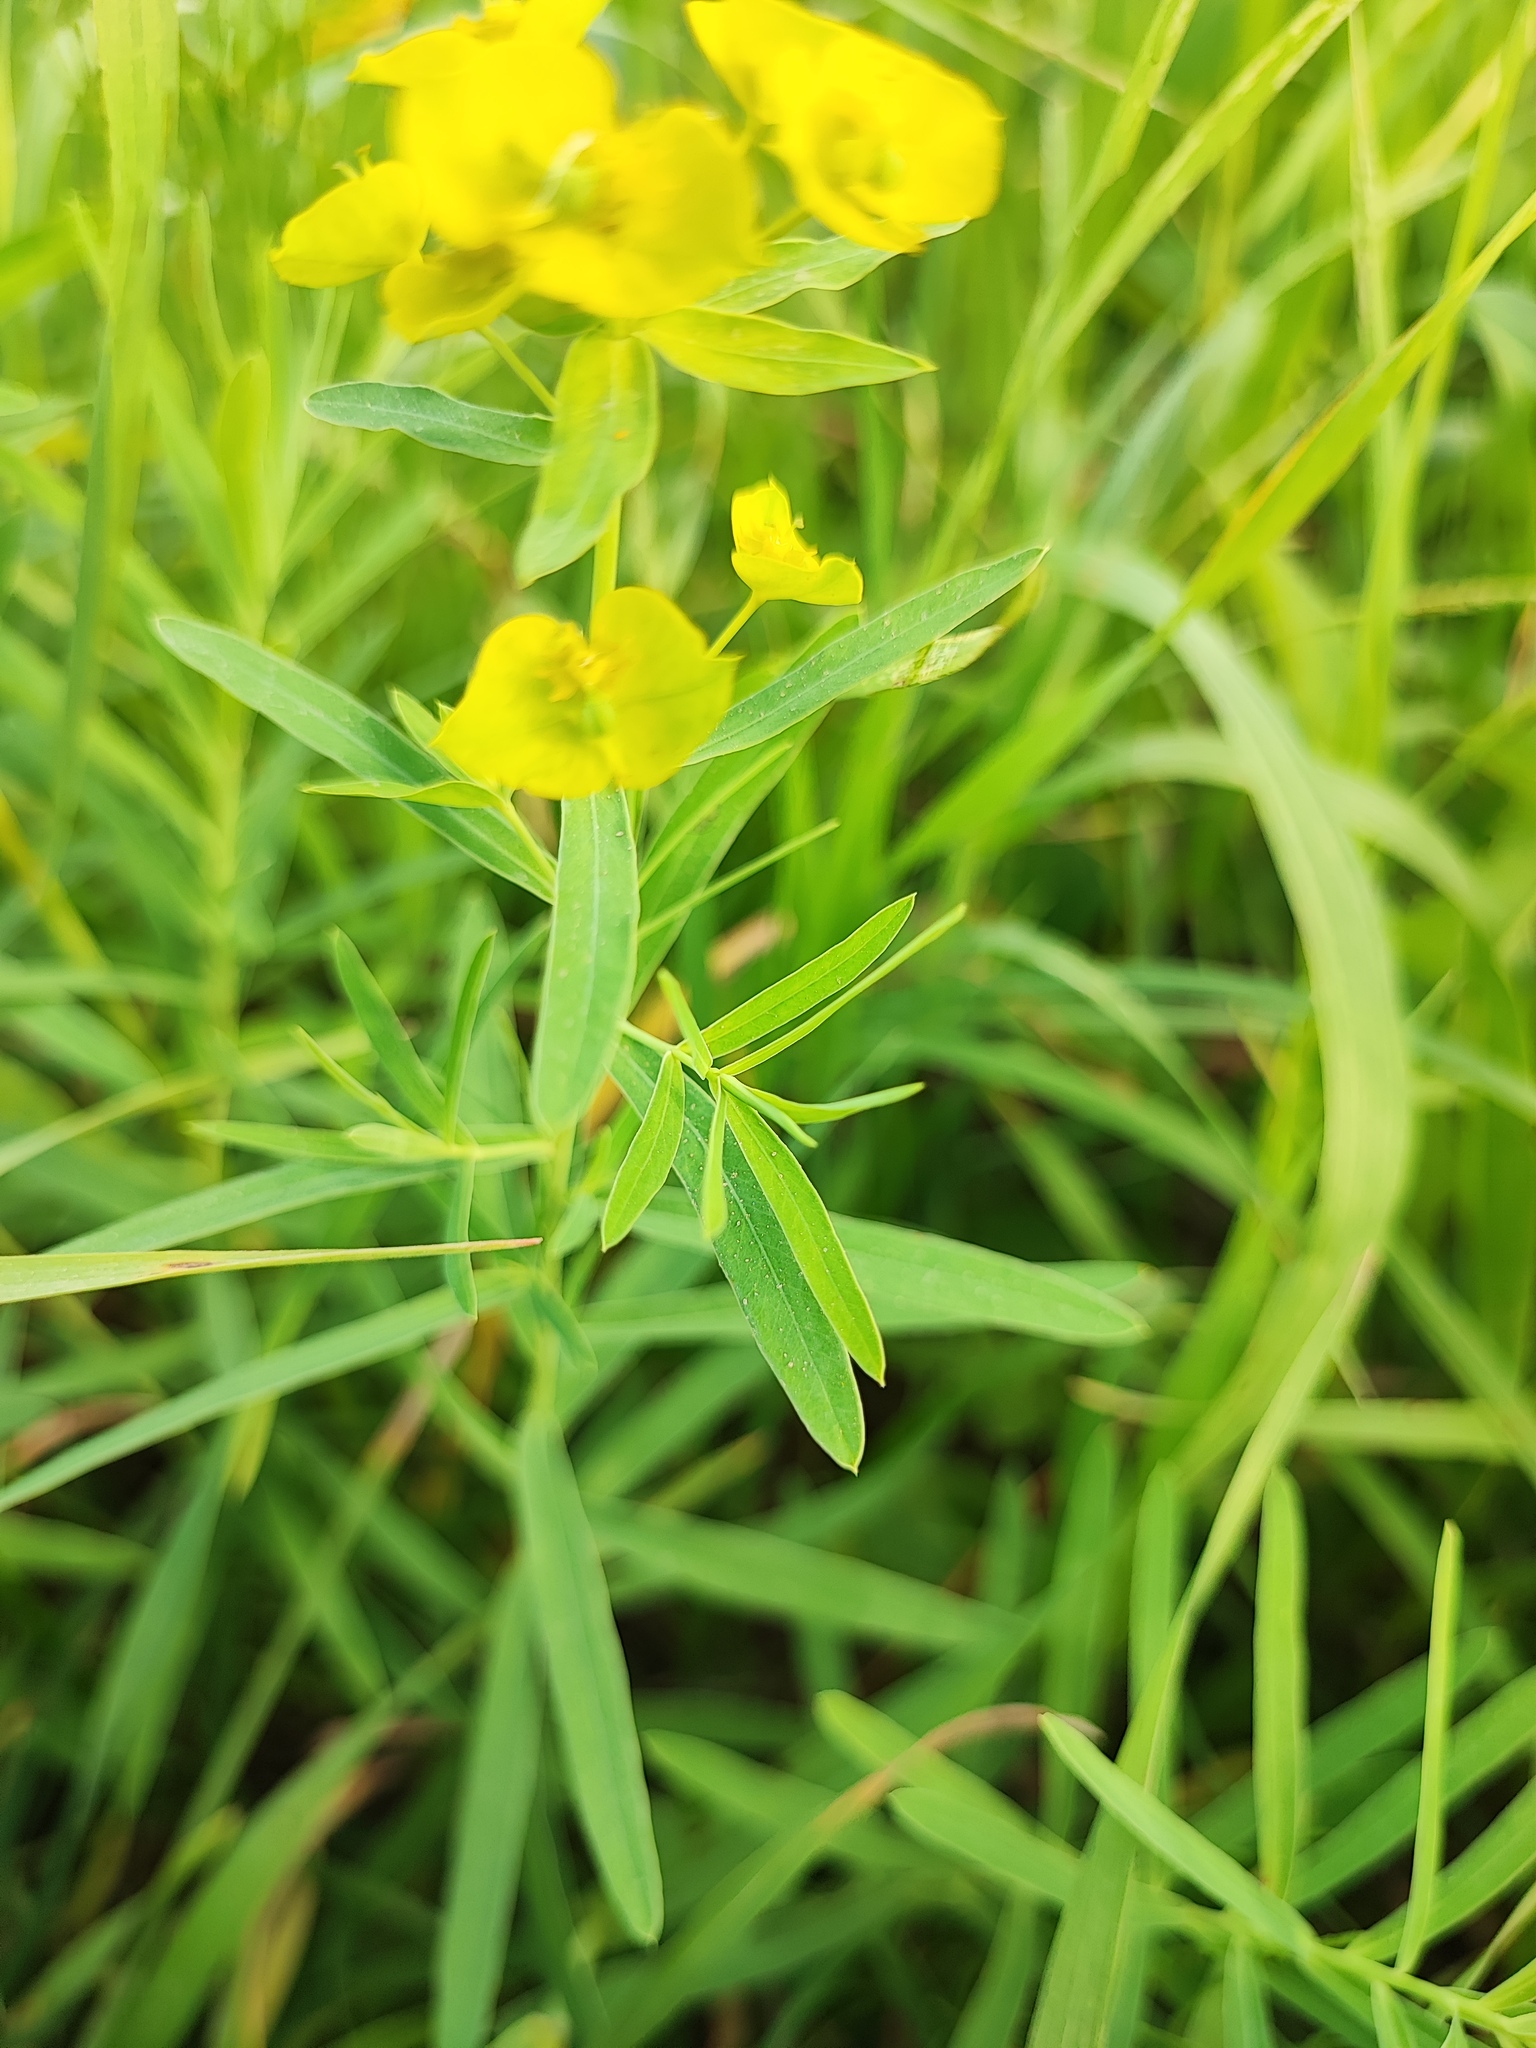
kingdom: Plantae
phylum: Tracheophyta
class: Magnoliopsida
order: Malpighiales
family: Euphorbiaceae
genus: Euphorbia
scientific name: Euphorbia virgata
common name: Leafy spurge
